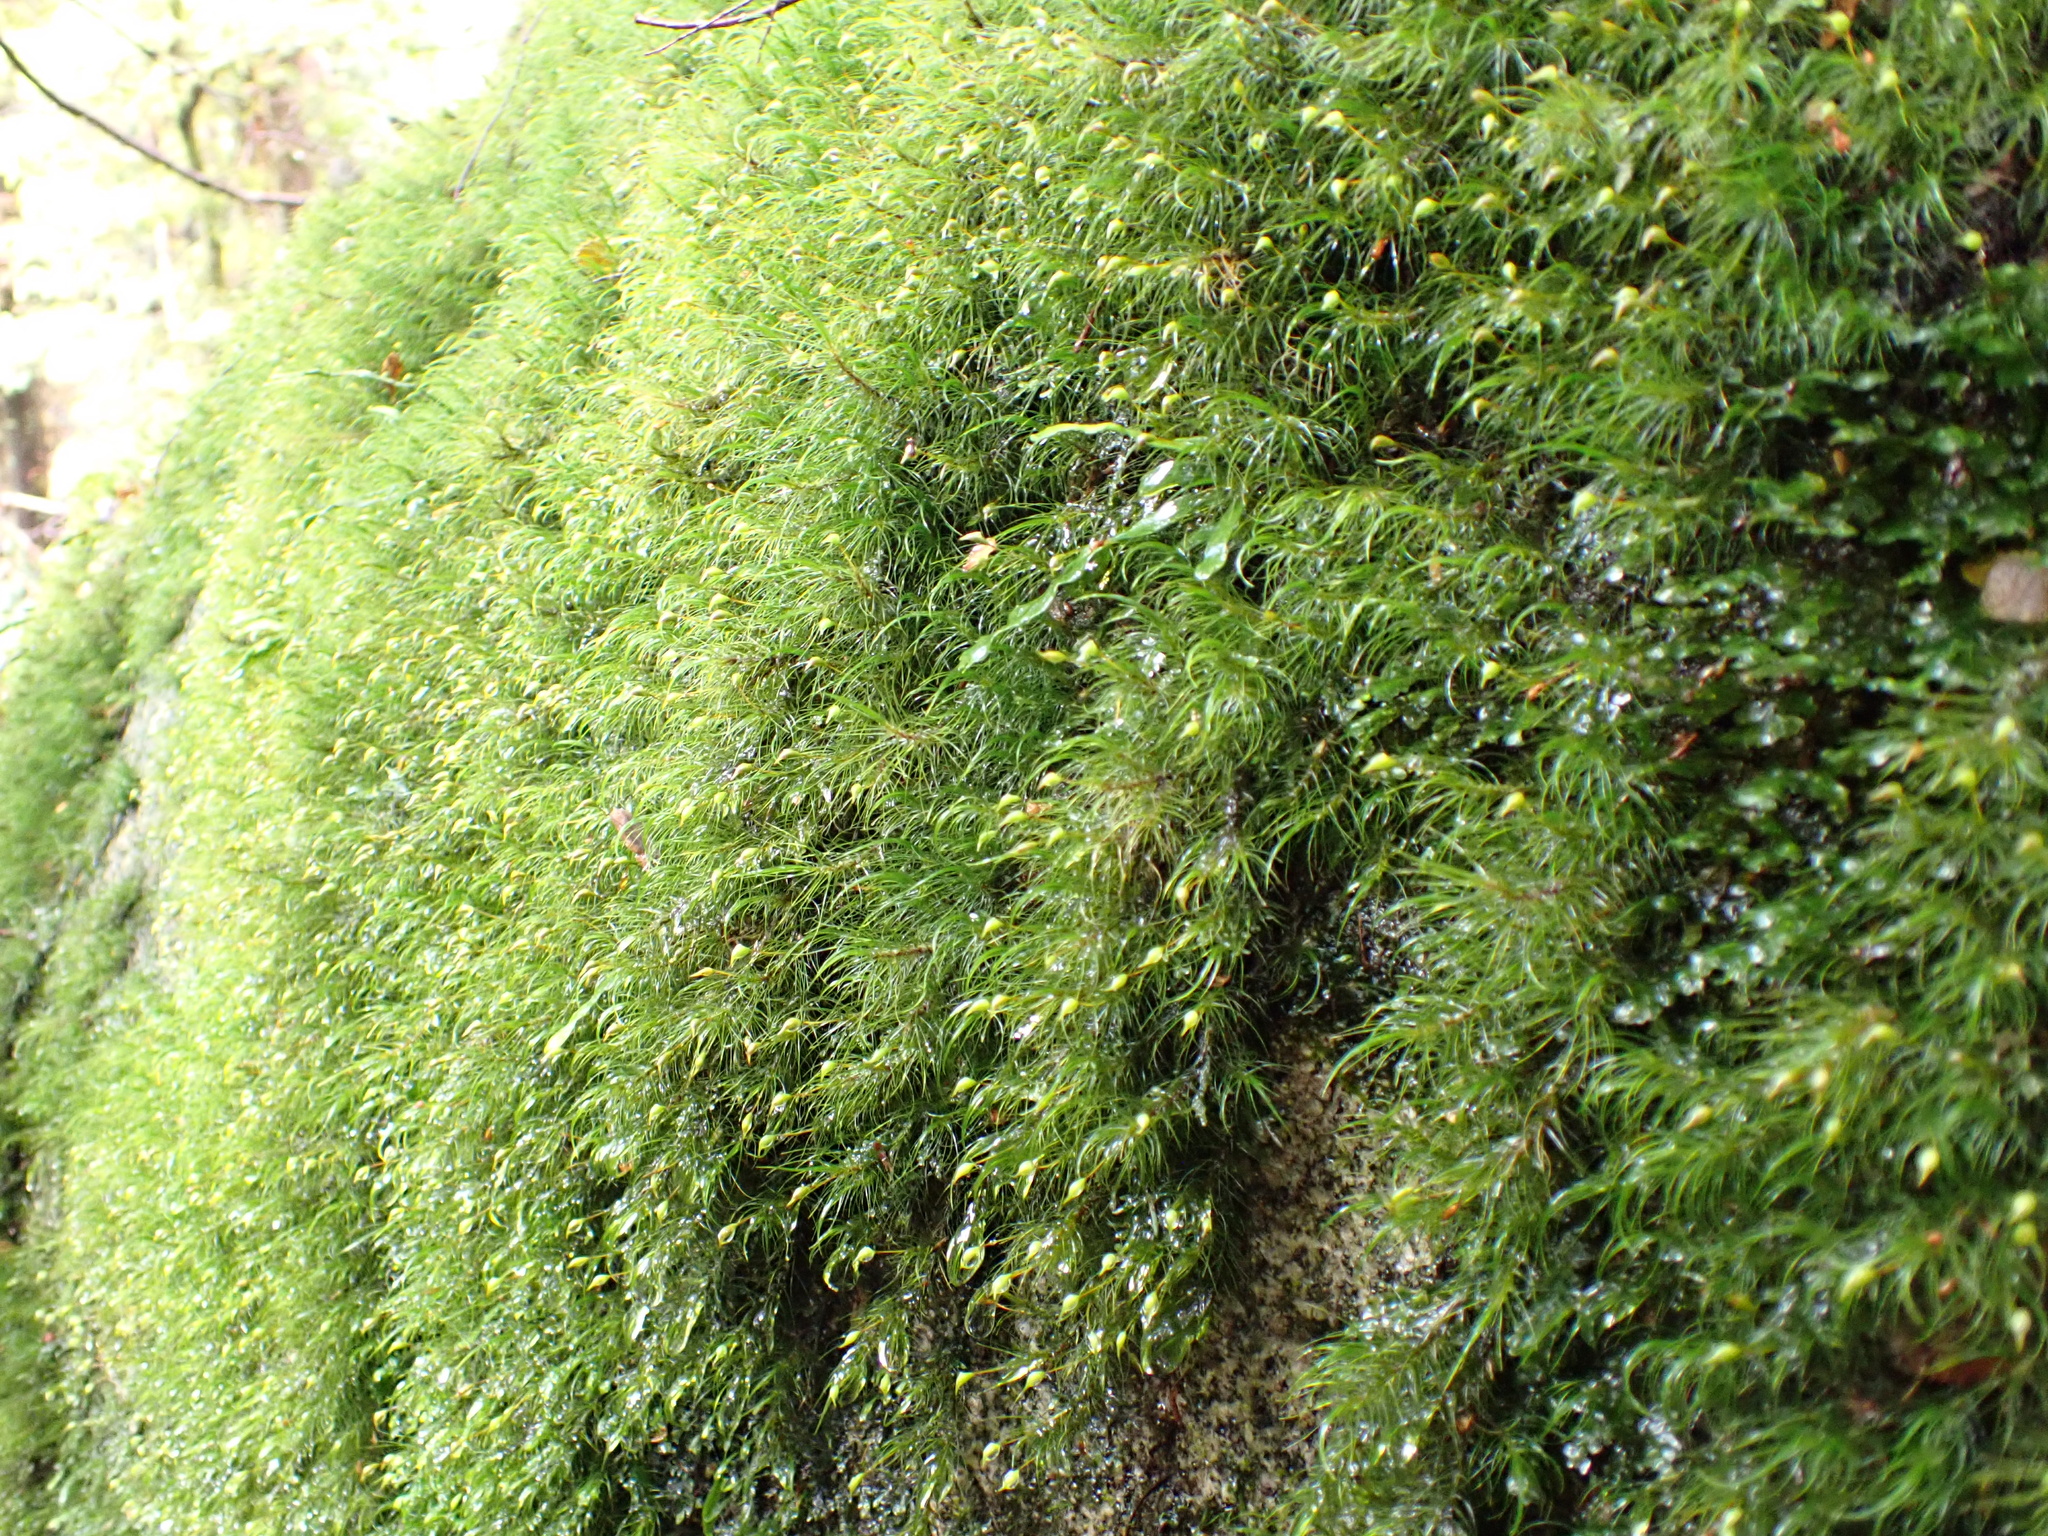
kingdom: Plantae
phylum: Bryophyta
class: Bryopsida
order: Dicranales
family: Dicranaceae
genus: Dicranoloma
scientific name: Dicranoloma menziesii
